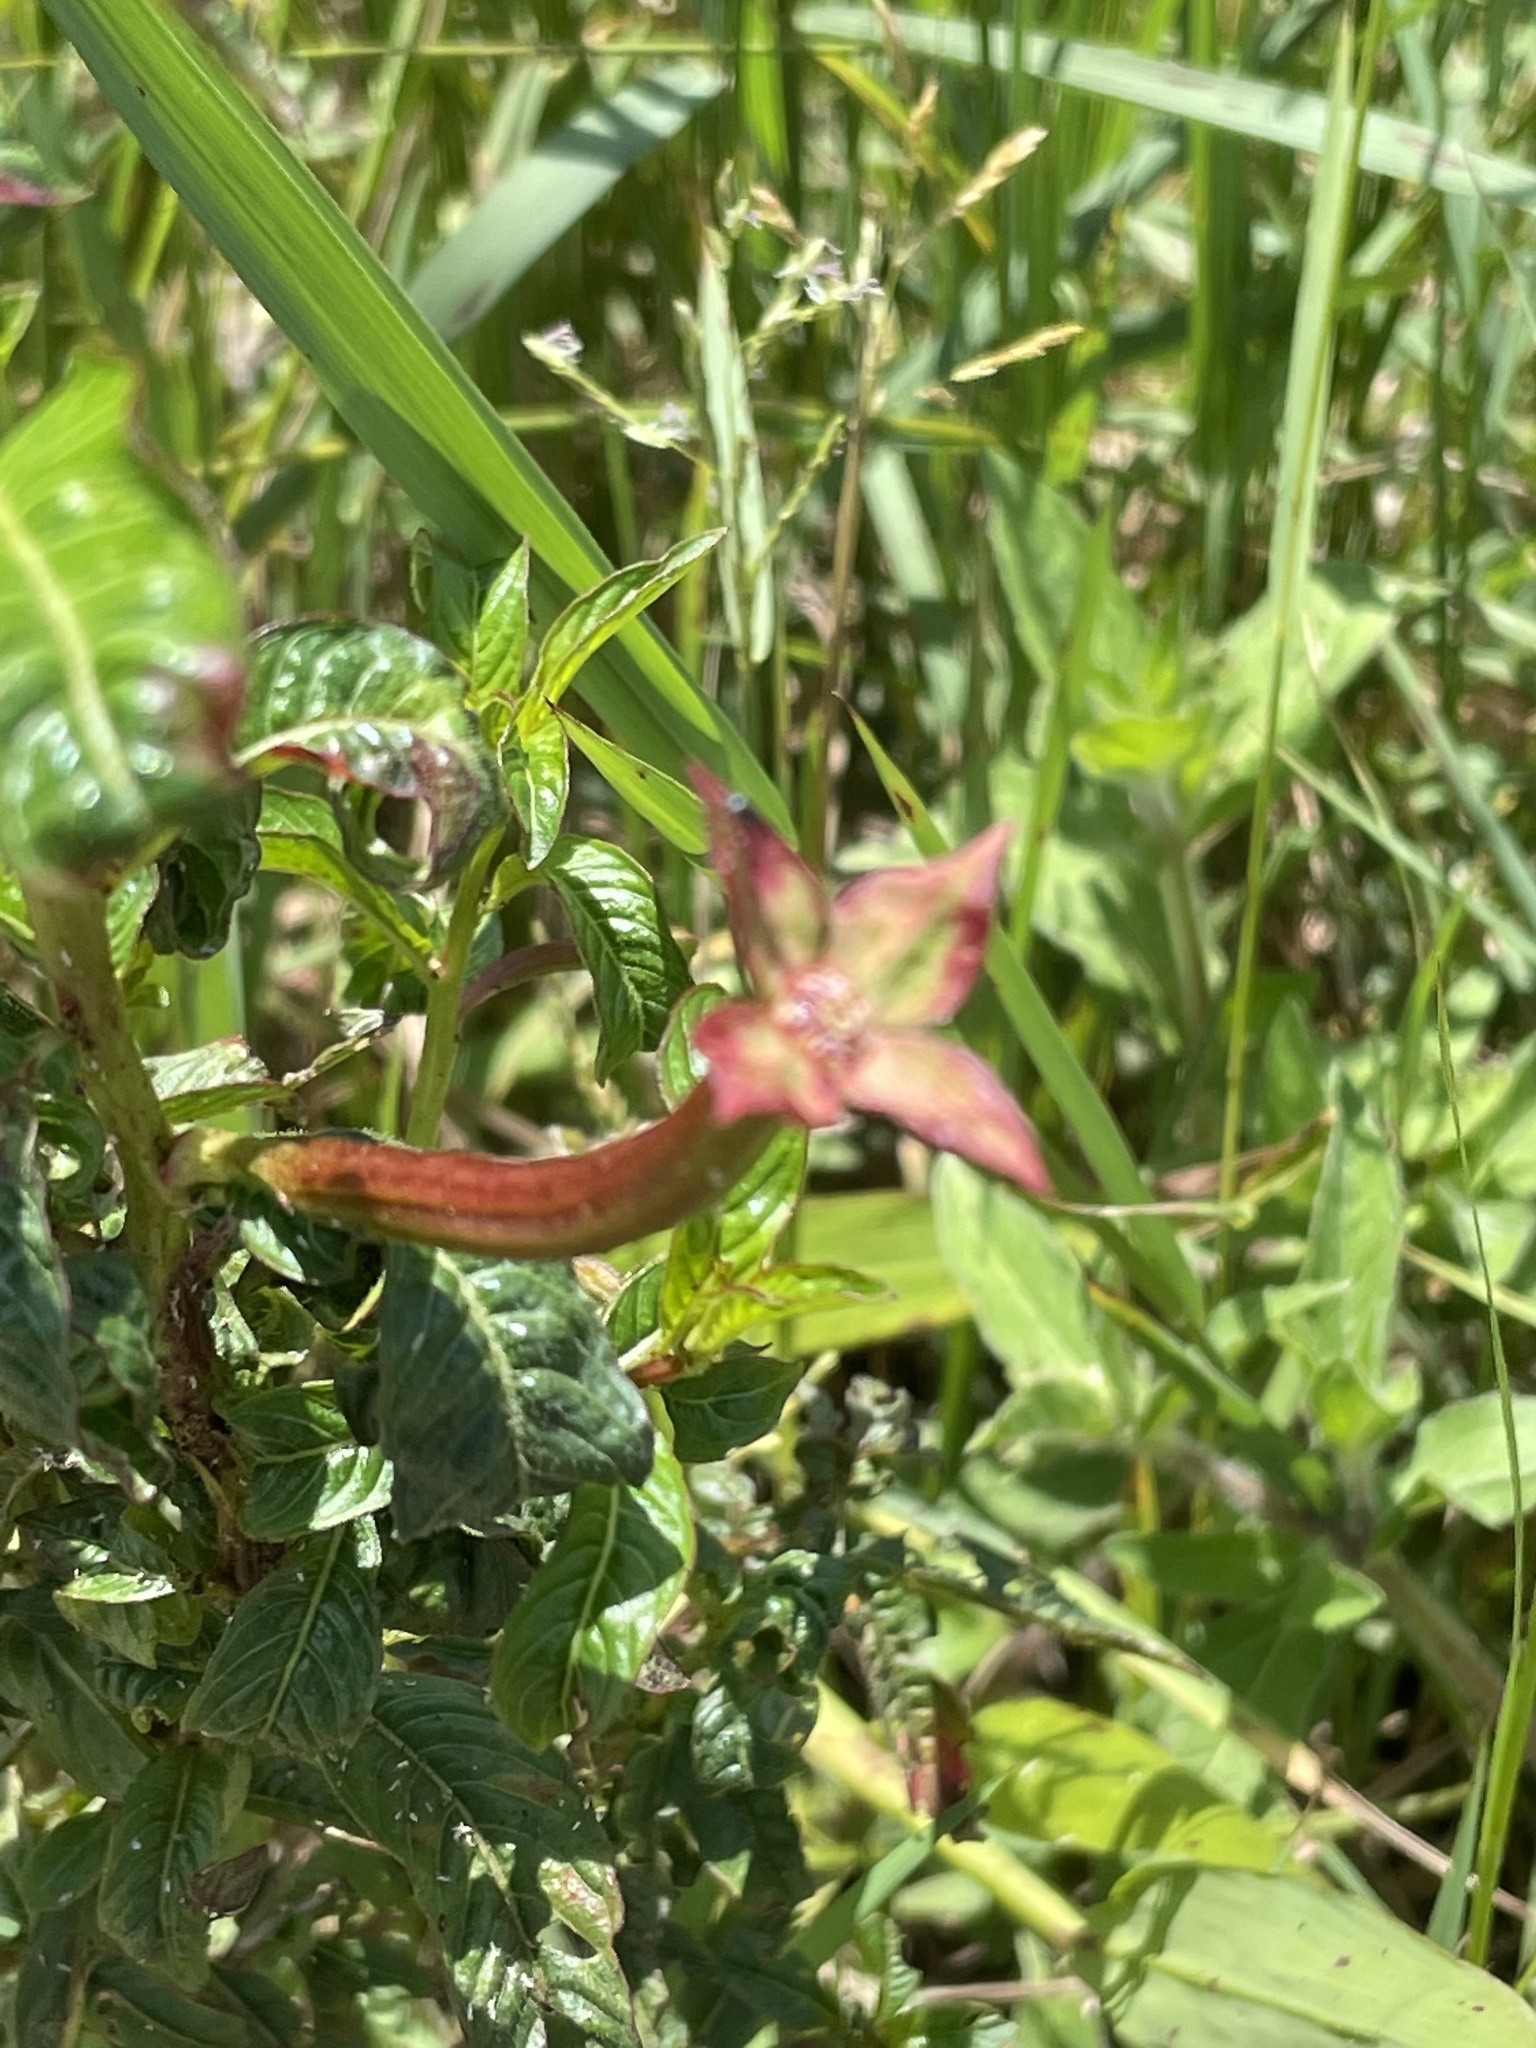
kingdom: Plantae
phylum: Tracheophyta
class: Magnoliopsida
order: Myrtales
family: Onagraceae
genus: Ludwigia
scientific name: Ludwigia octovalvis
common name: Water-primrose
